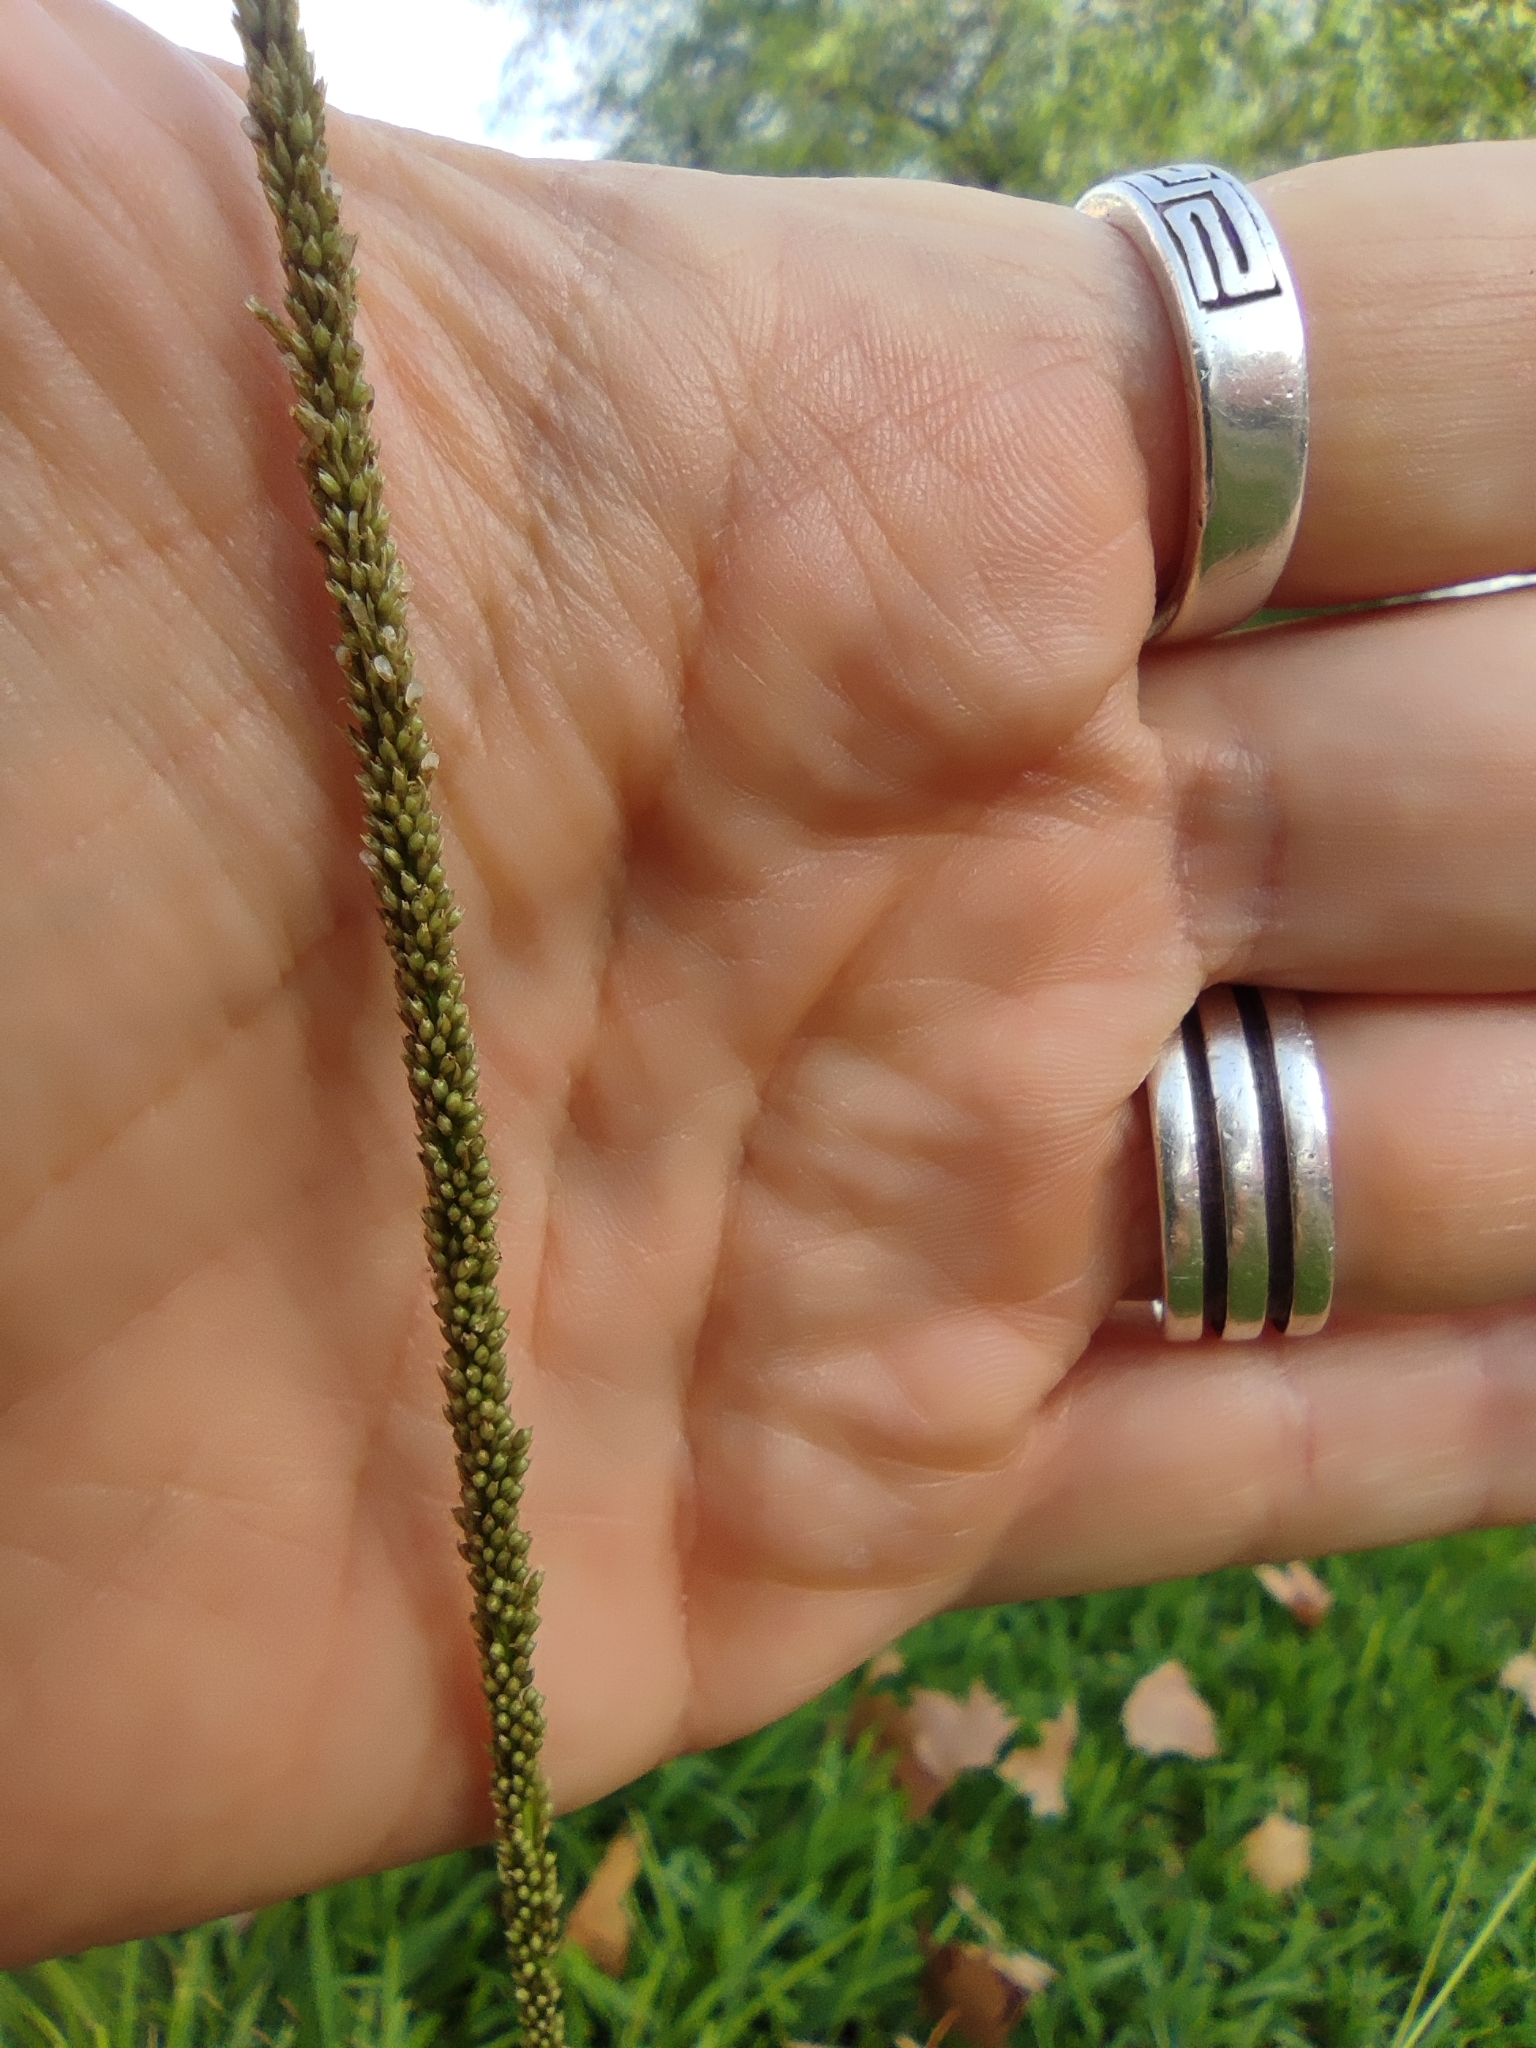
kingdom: Plantae
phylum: Tracheophyta
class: Liliopsida
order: Poales
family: Poaceae
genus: Sporobolus
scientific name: Sporobolus indicus
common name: Smut grass
